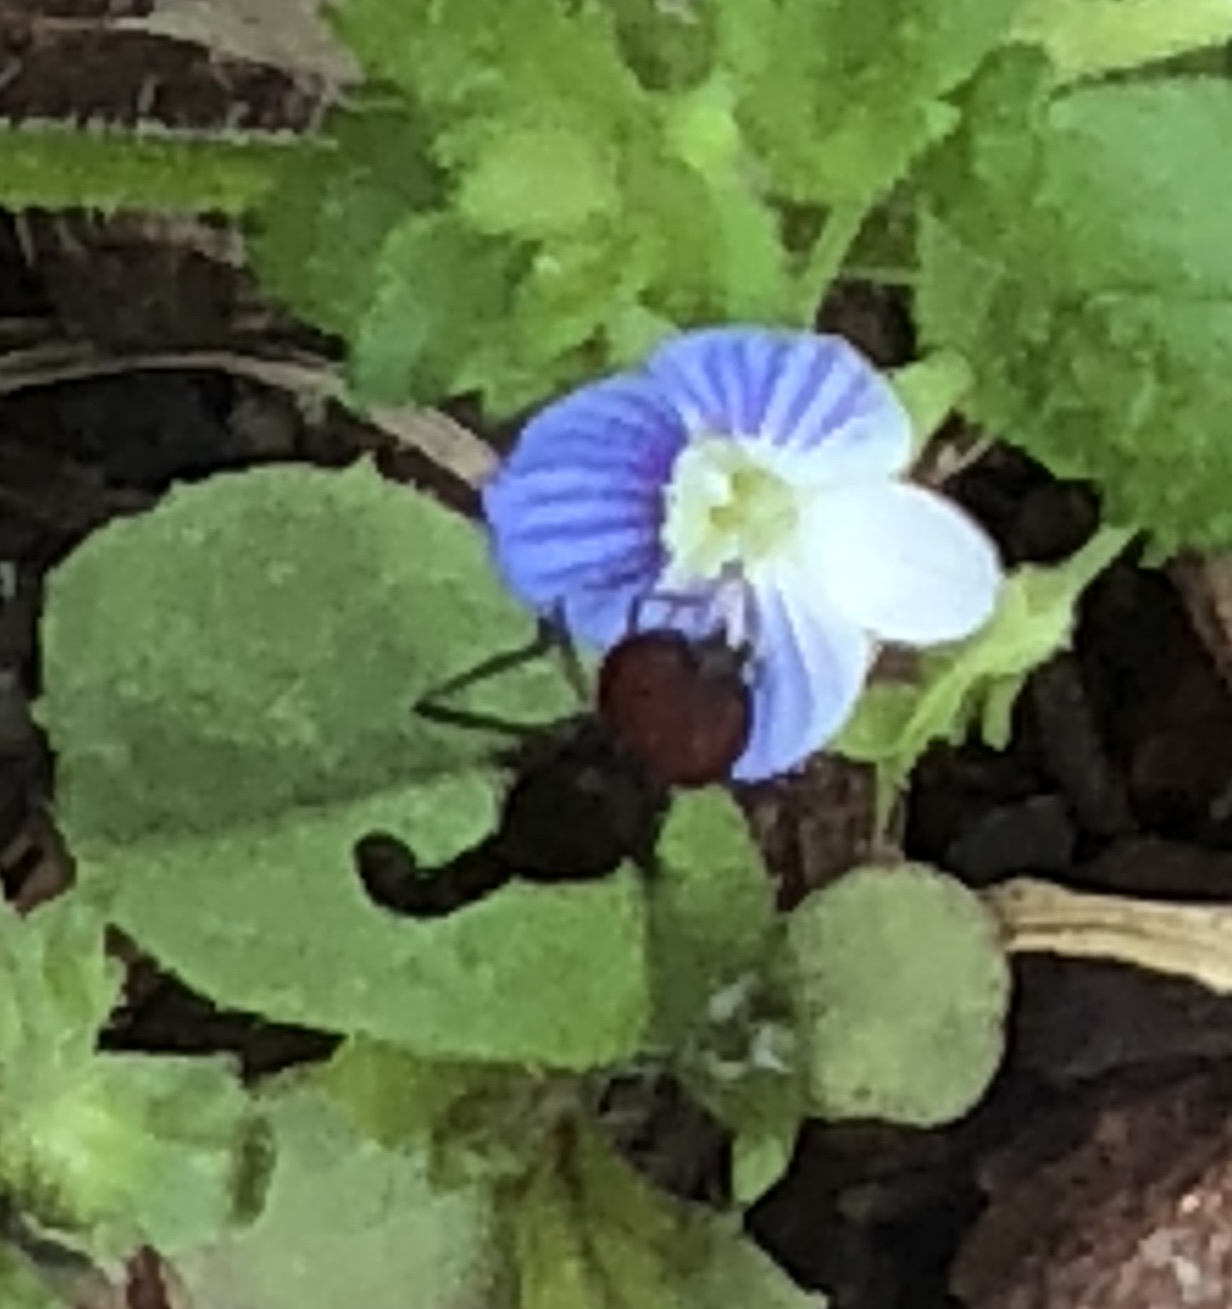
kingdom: Animalia
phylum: Arthropoda
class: Insecta
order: Diptera
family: Syrphidae
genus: Ocyptamus
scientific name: Ocyptamus fuscipennis
